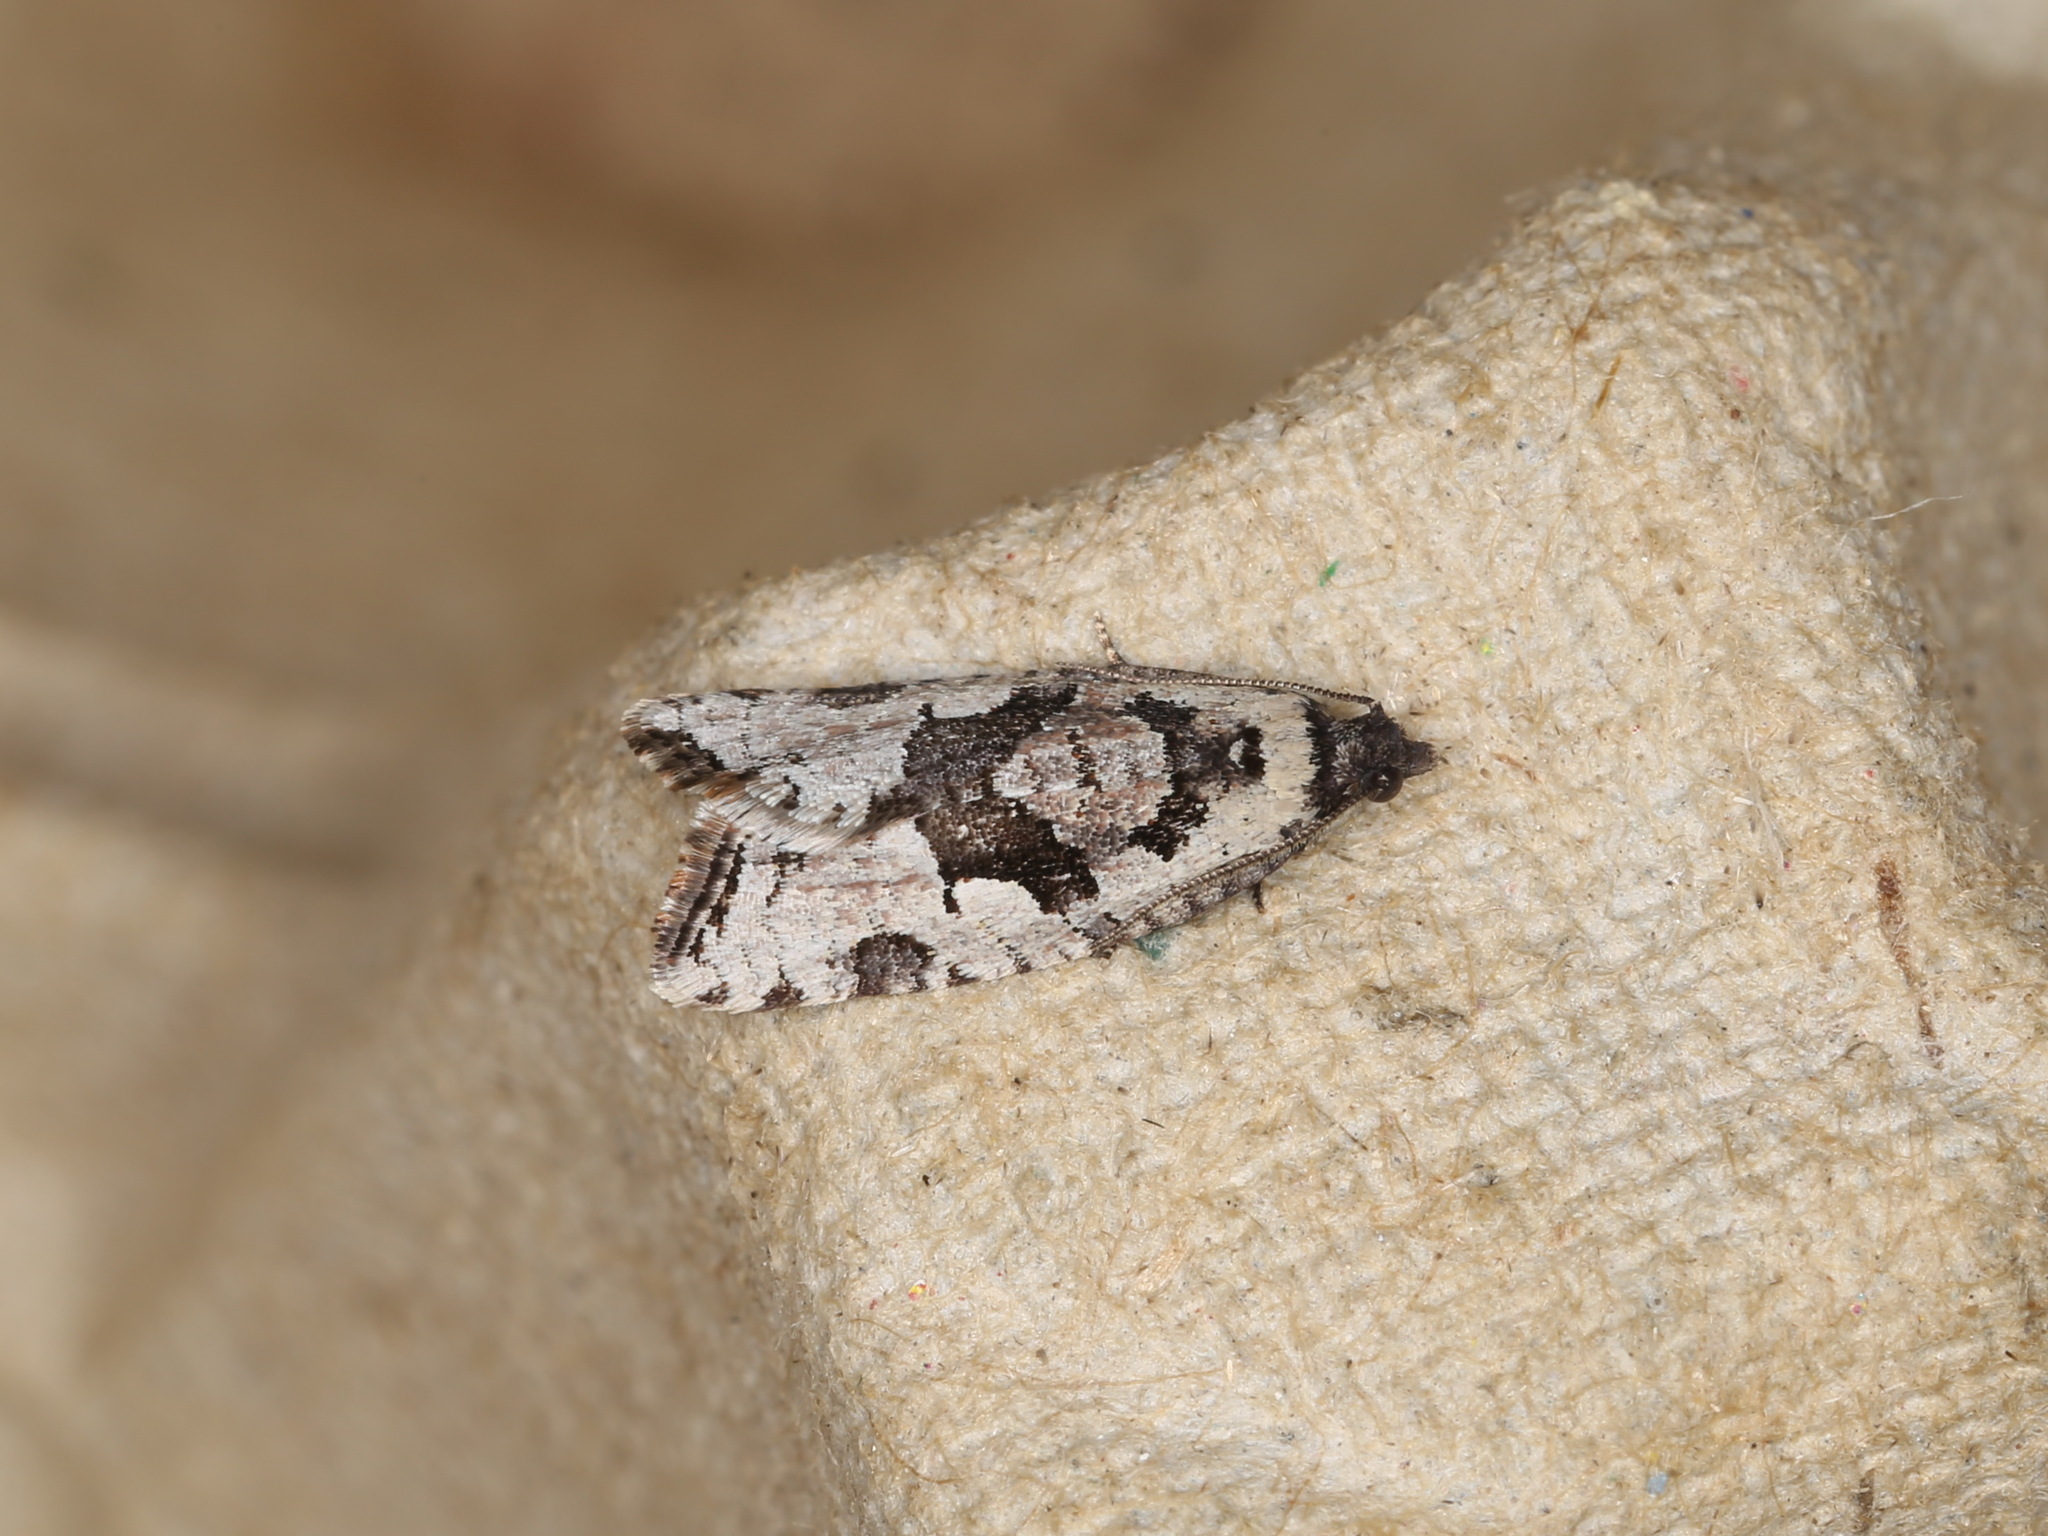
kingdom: Animalia
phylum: Arthropoda
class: Insecta
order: Lepidoptera
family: Tortricidae
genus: Sciaphila
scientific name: Sciaphila debiliana
